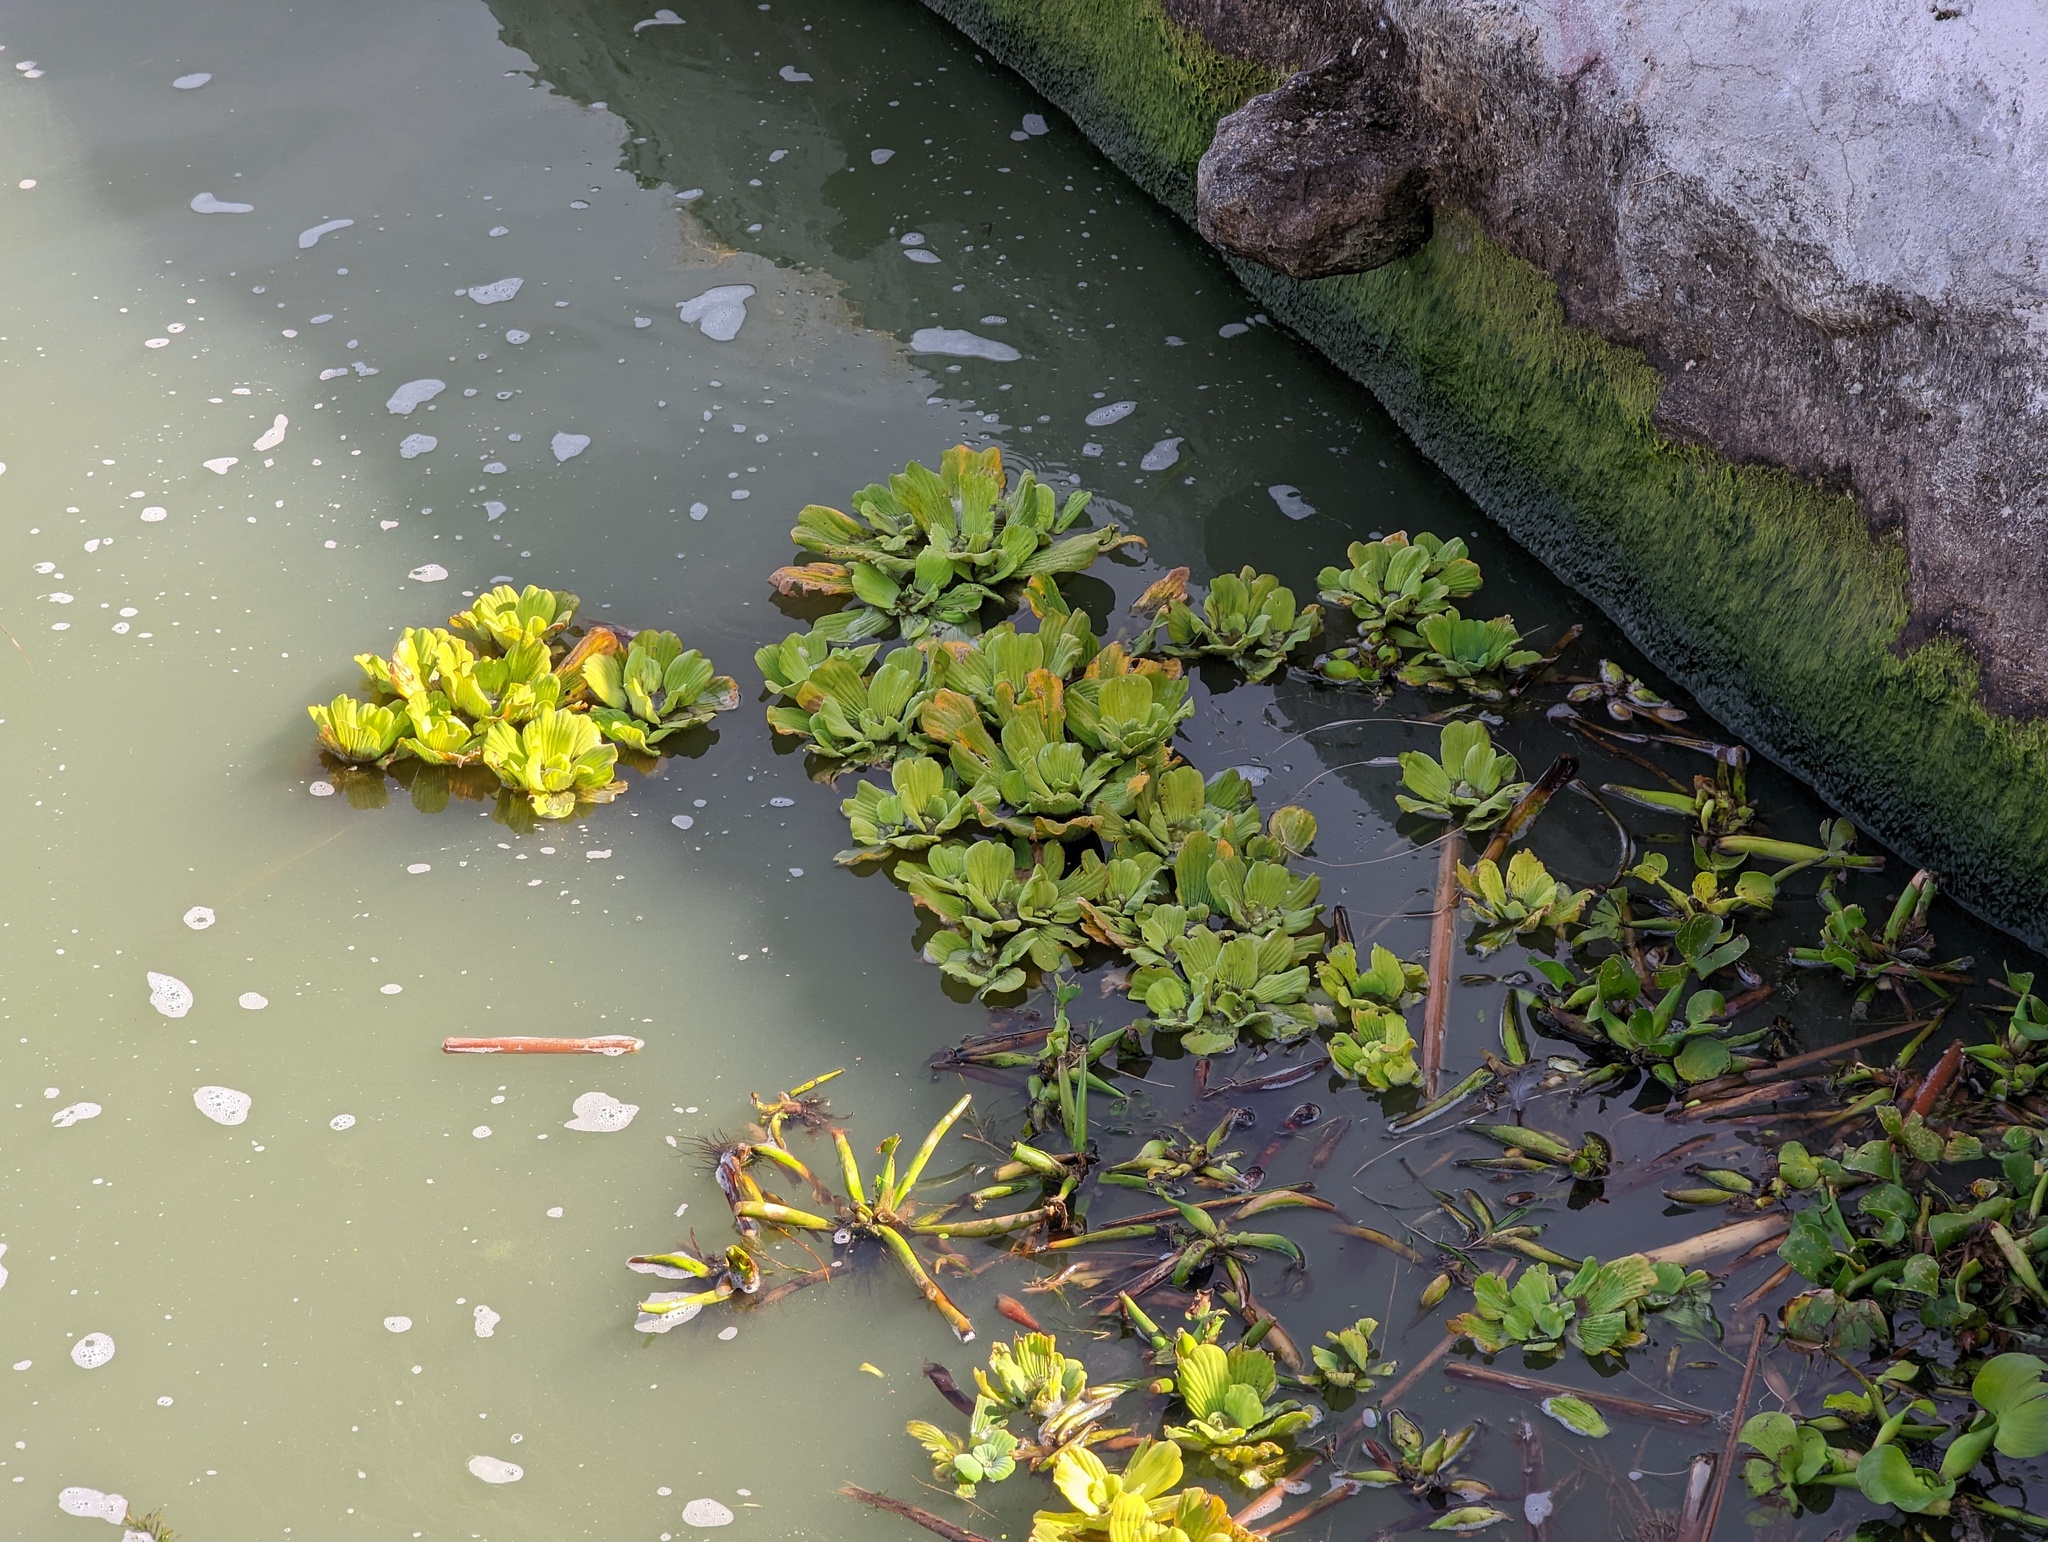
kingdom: Plantae
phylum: Tracheophyta
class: Liliopsida
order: Alismatales
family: Araceae
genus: Pistia
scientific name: Pistia stratiotes
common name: Water lettuce
